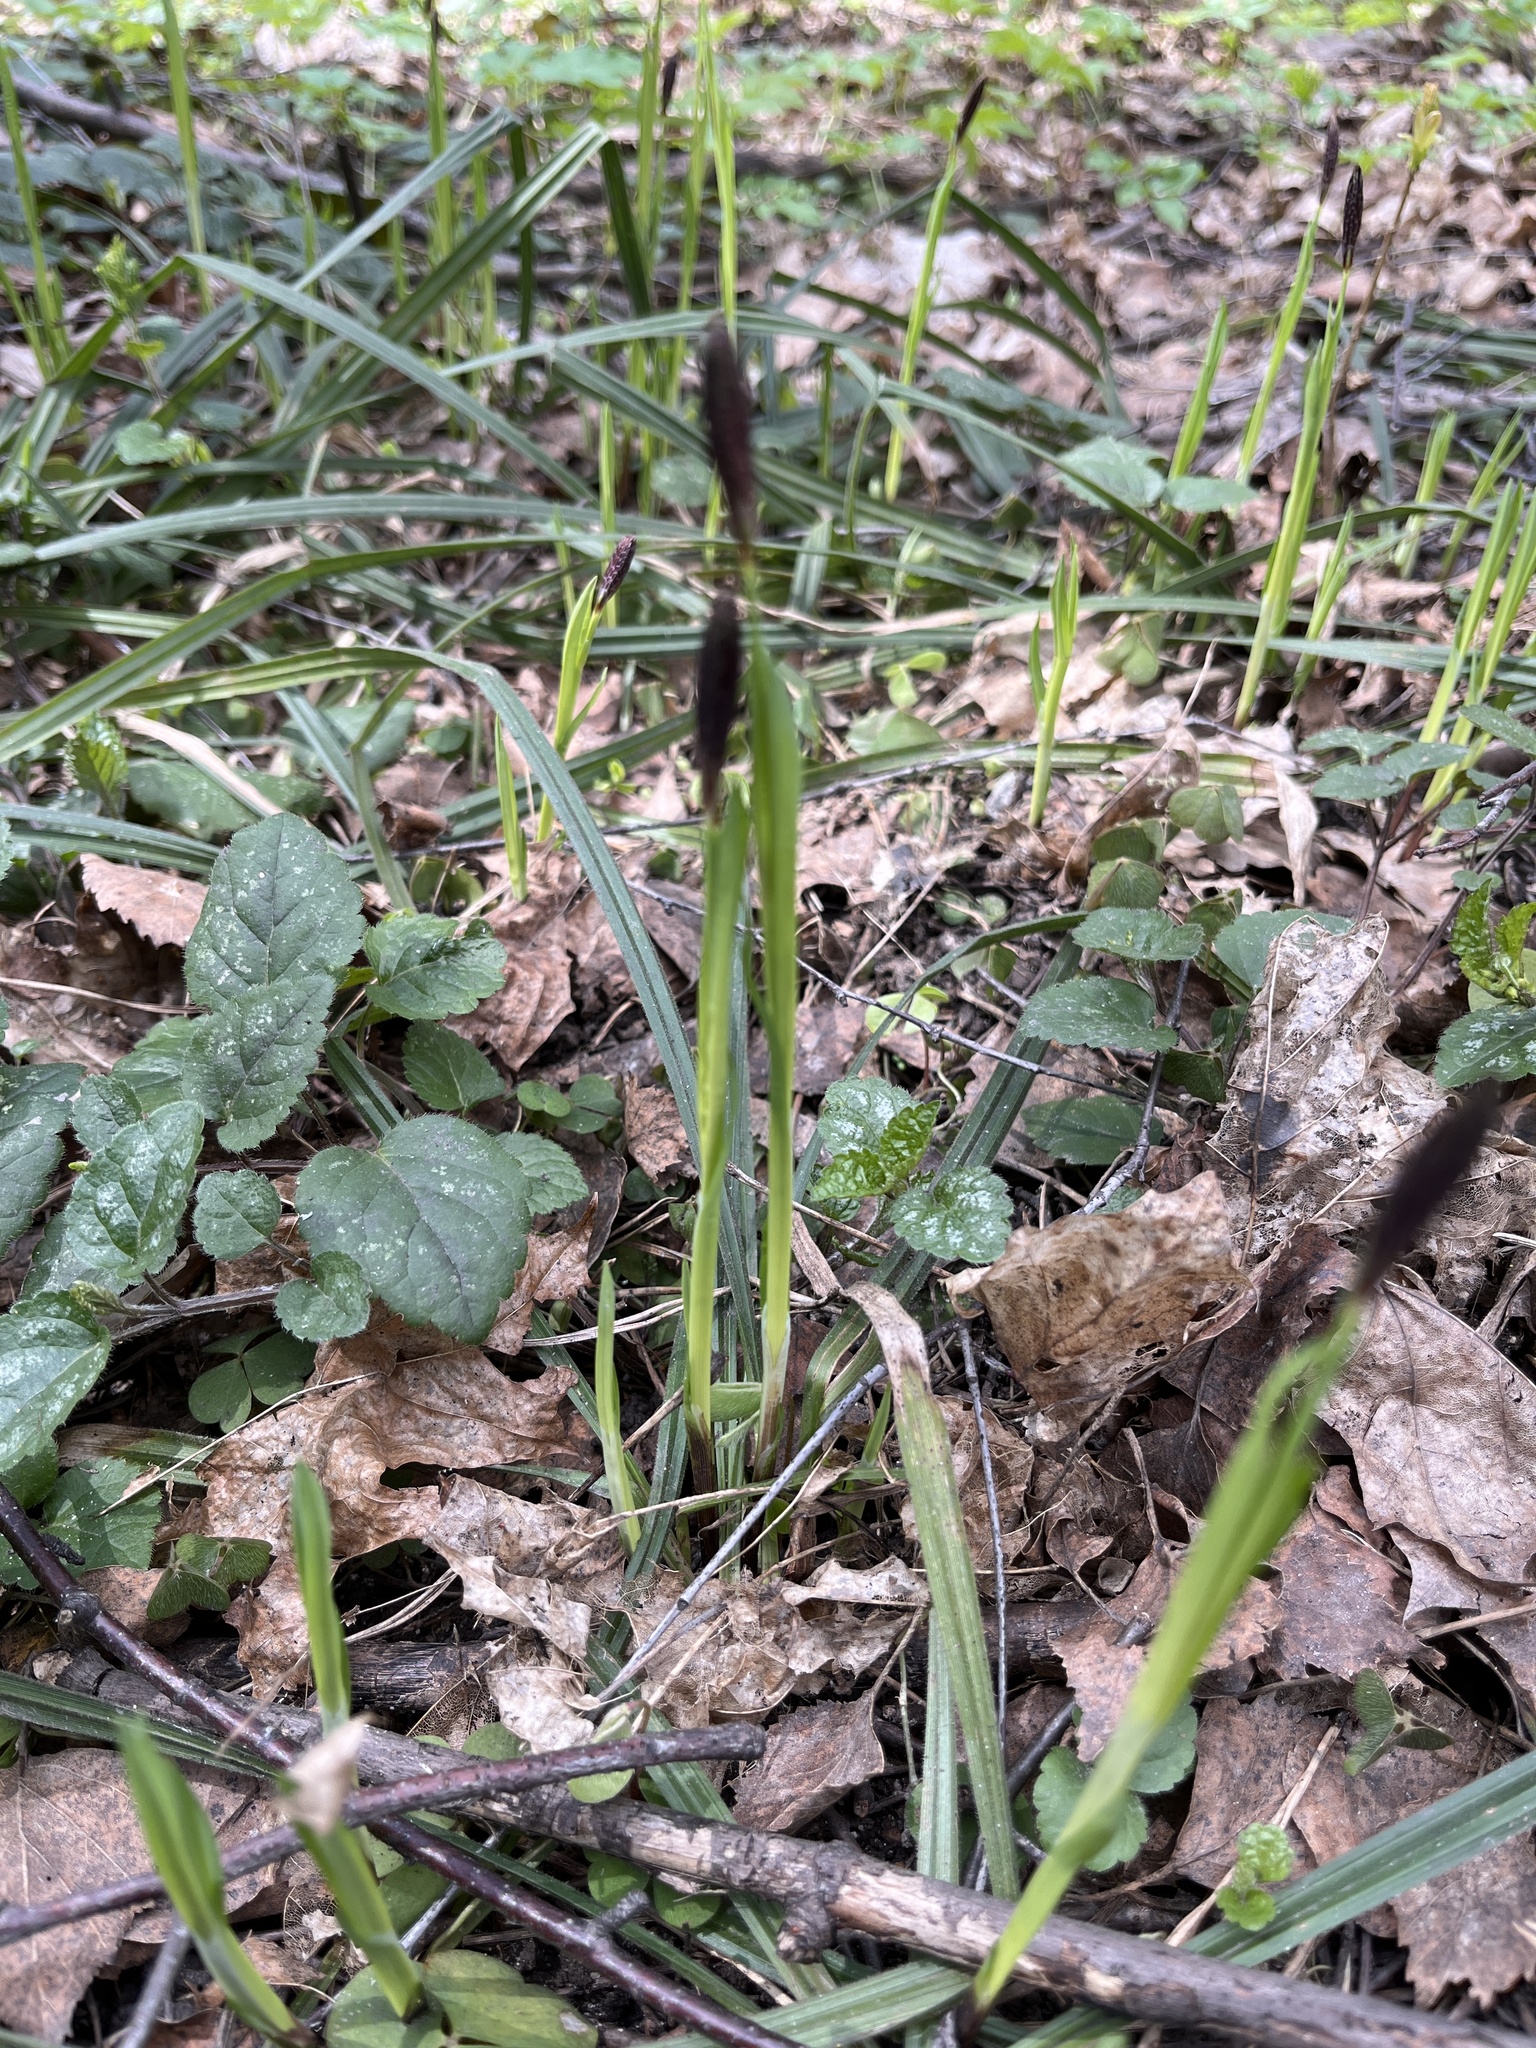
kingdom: Plantae
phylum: Tracheophyta
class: Liliopsida
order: Poales
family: Cyperaceae
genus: Carex
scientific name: Carex pilosa
